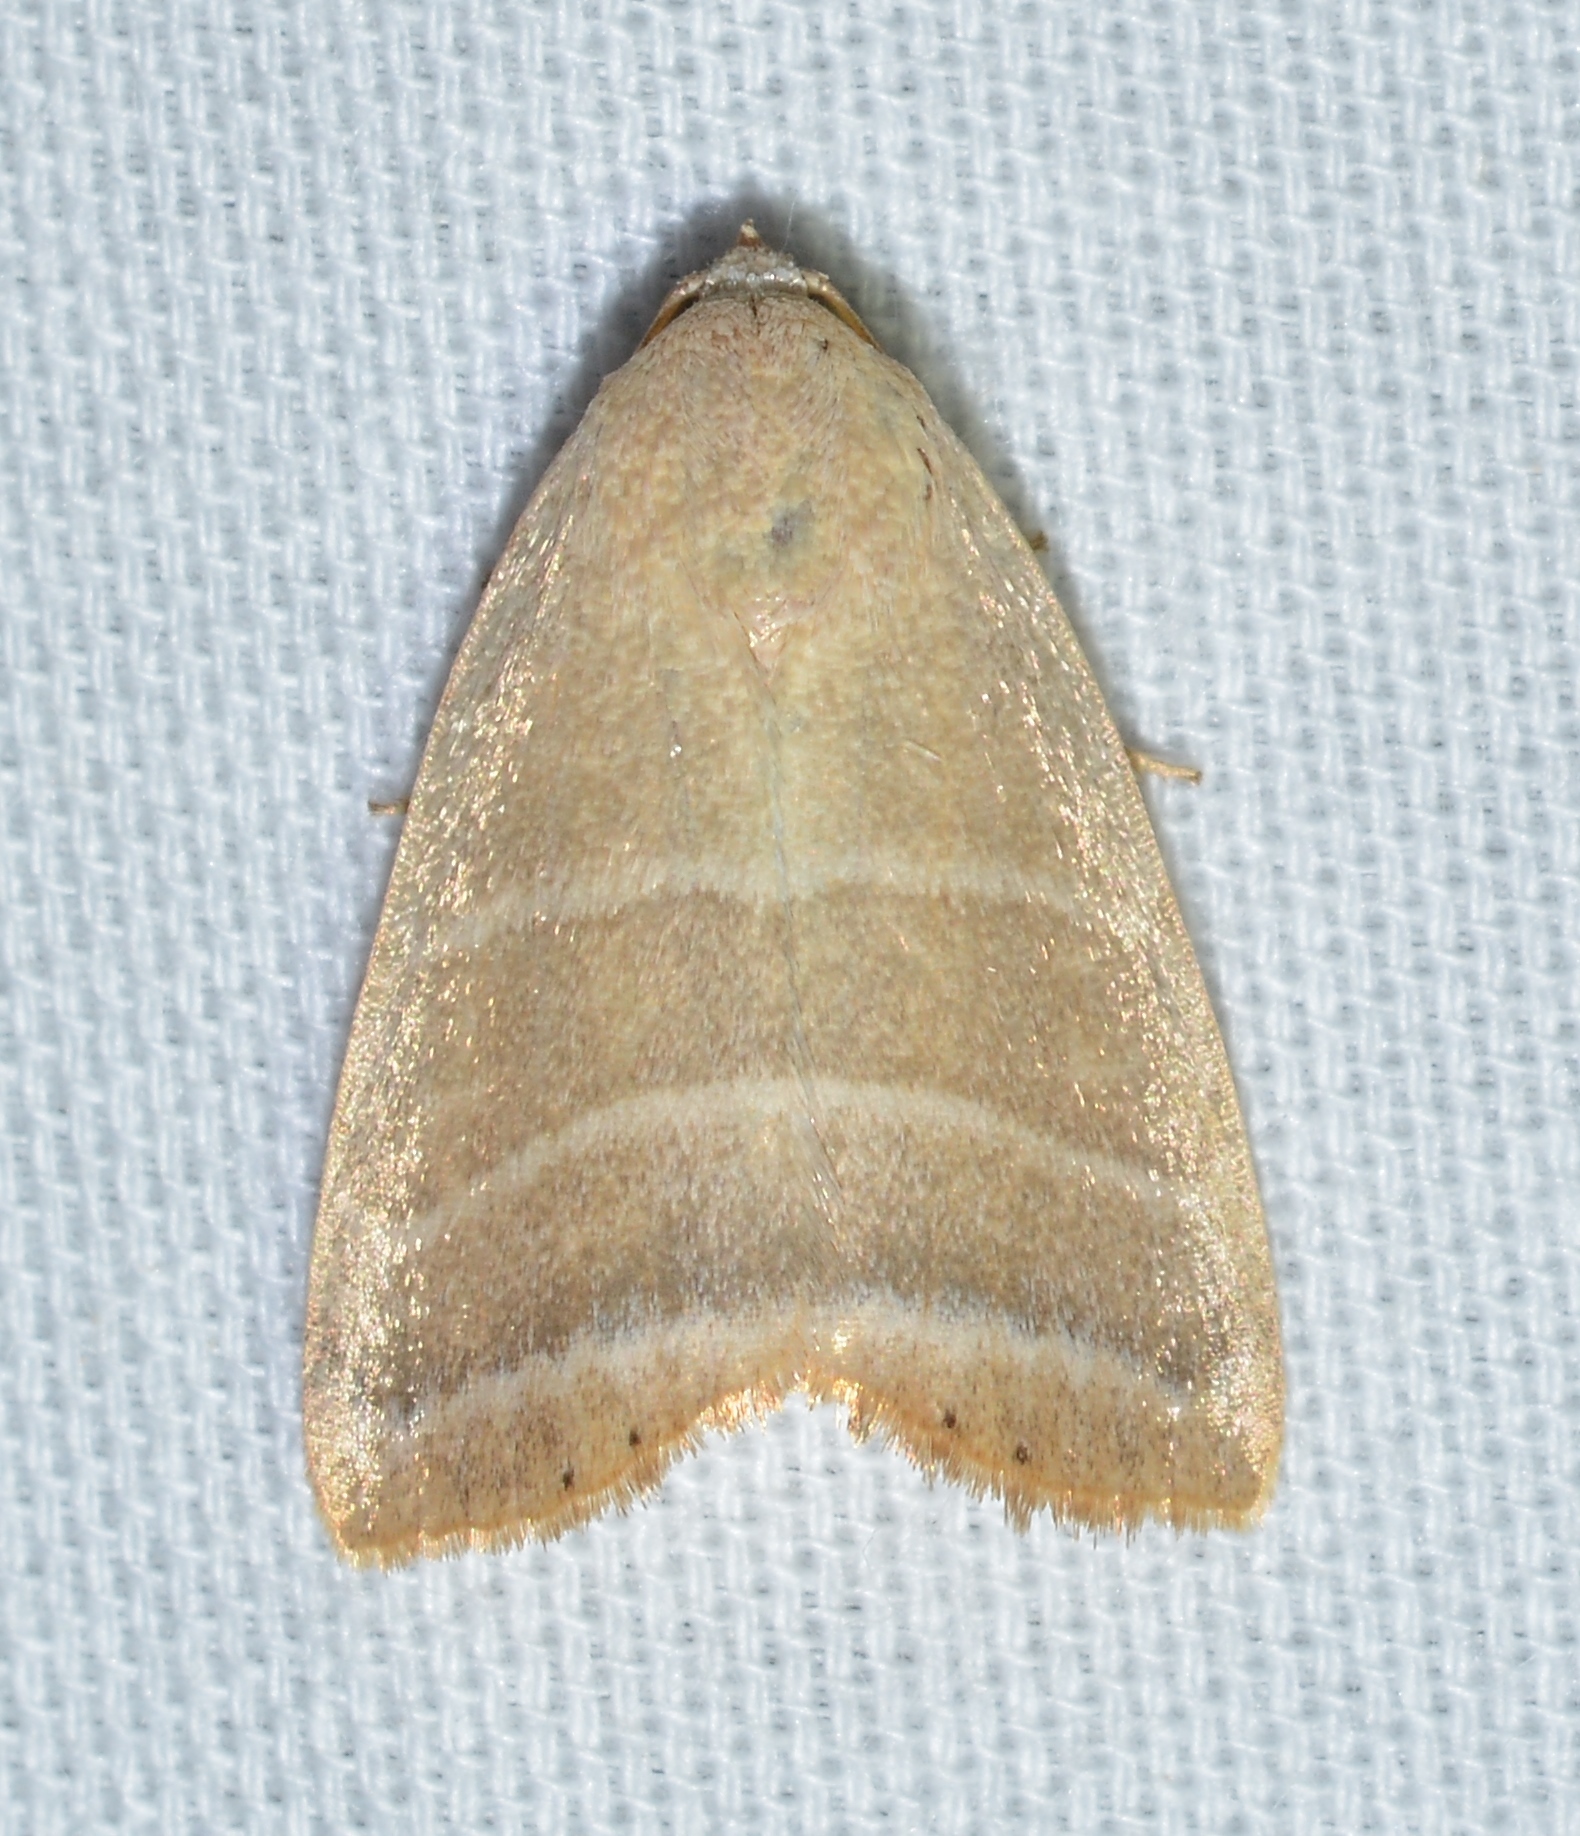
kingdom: Animalia
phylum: Arthropoda
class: Insecta
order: Lepidoptera
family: Noctuidae
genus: Bagisara
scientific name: Bagisara rectifascia
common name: Straight lined mallow moth
